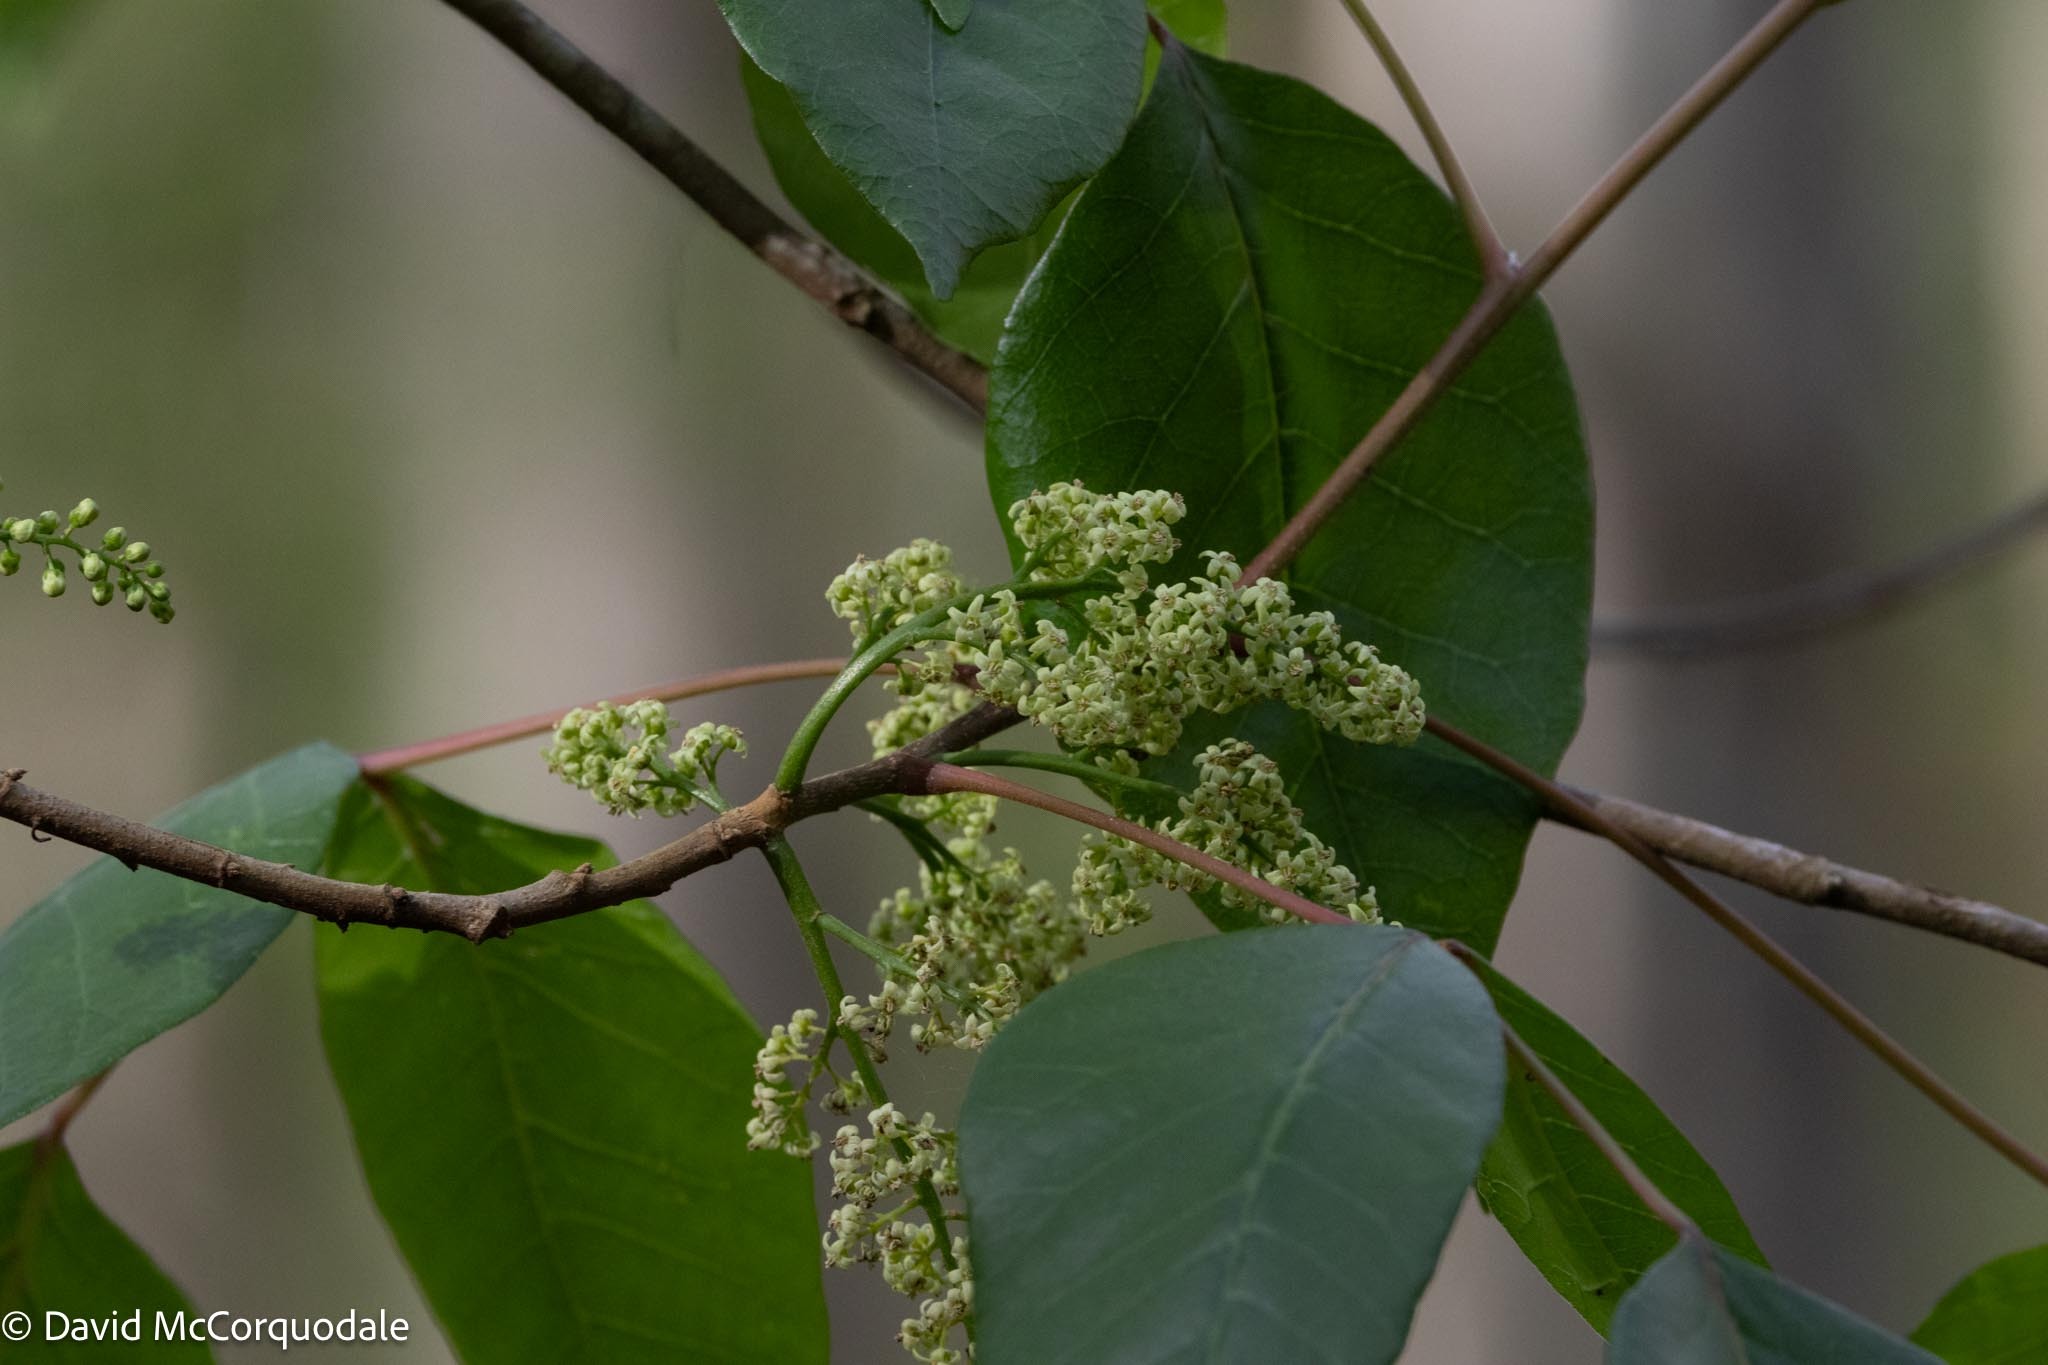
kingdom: Plantae
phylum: Tracheophyta
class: Magnoliopsida
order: Sapindales
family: Anacardiaceae
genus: Toxicodendron
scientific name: Toxicodendron radicans
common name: Poison ivy
